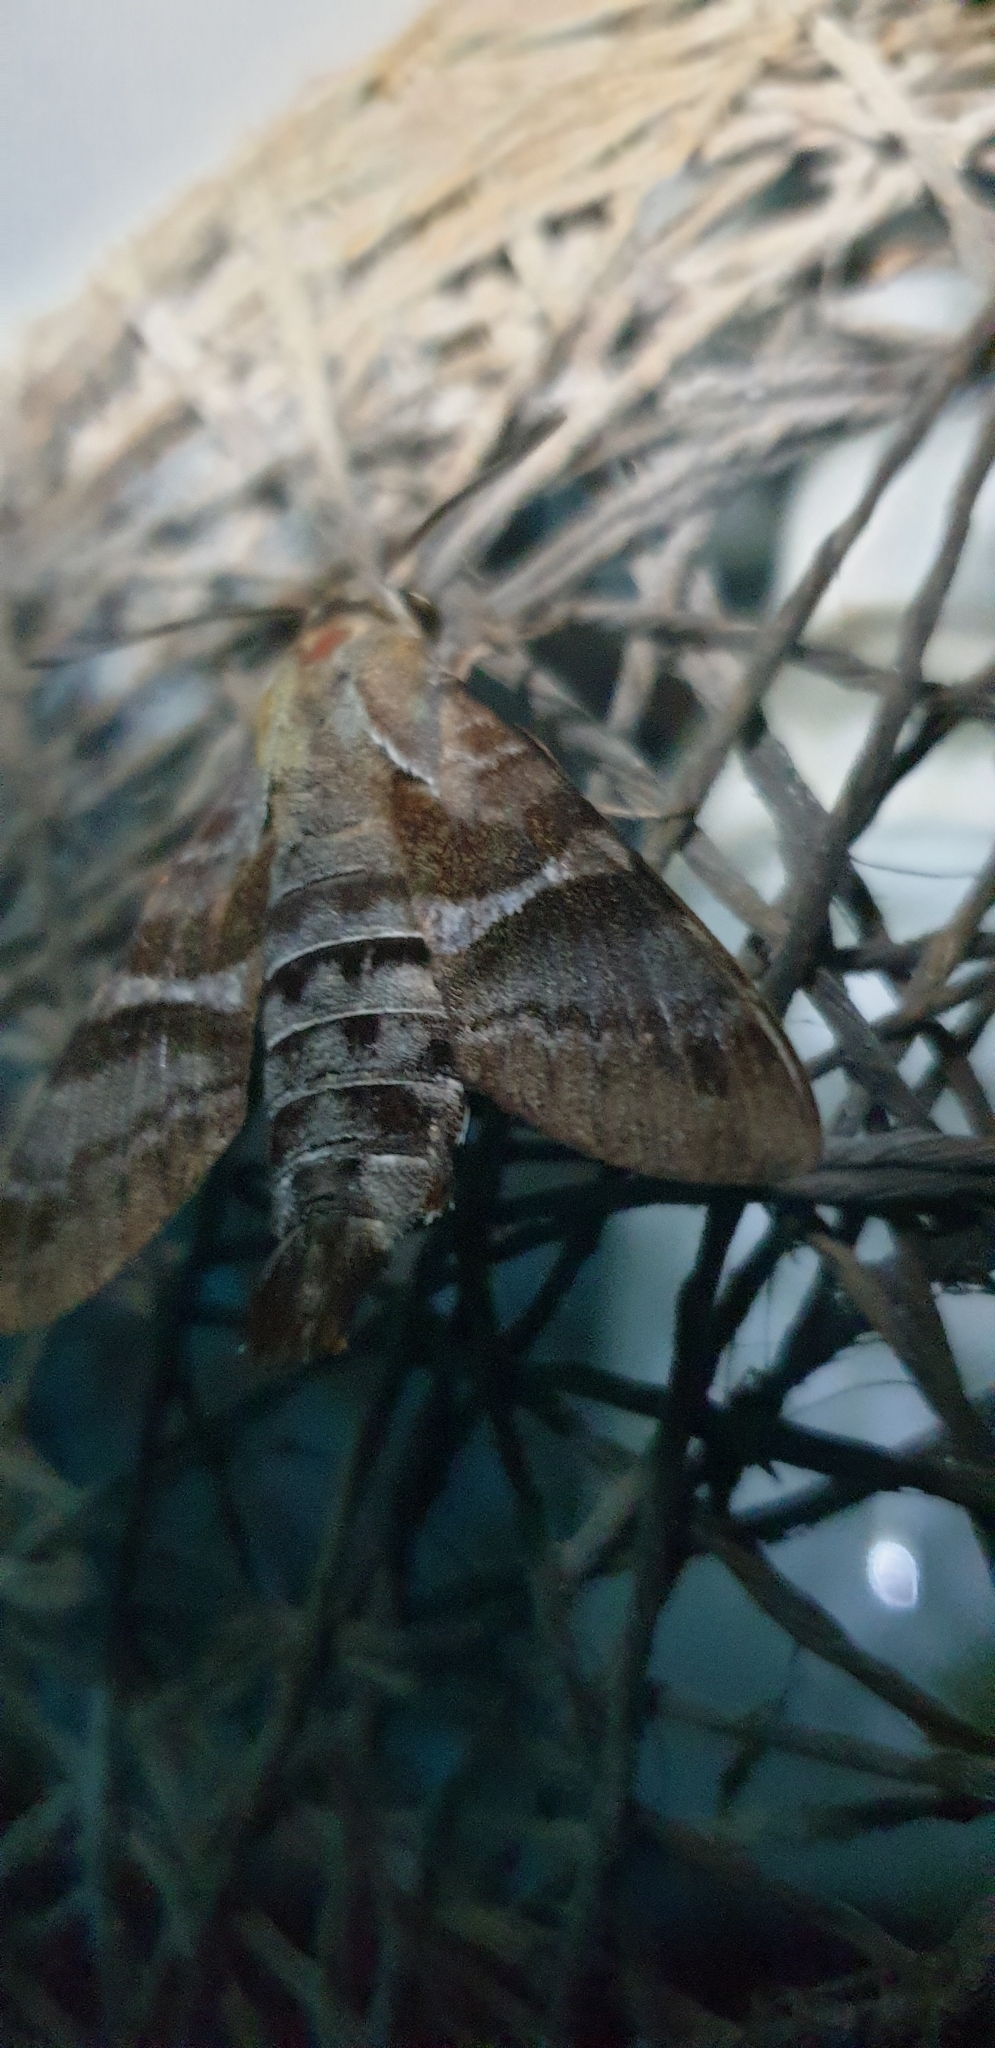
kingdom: Animalia
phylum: Arthropoda
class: Insecta
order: Lepidoptera
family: Sphingidae
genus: Macroglossum
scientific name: Macroglossum errans
